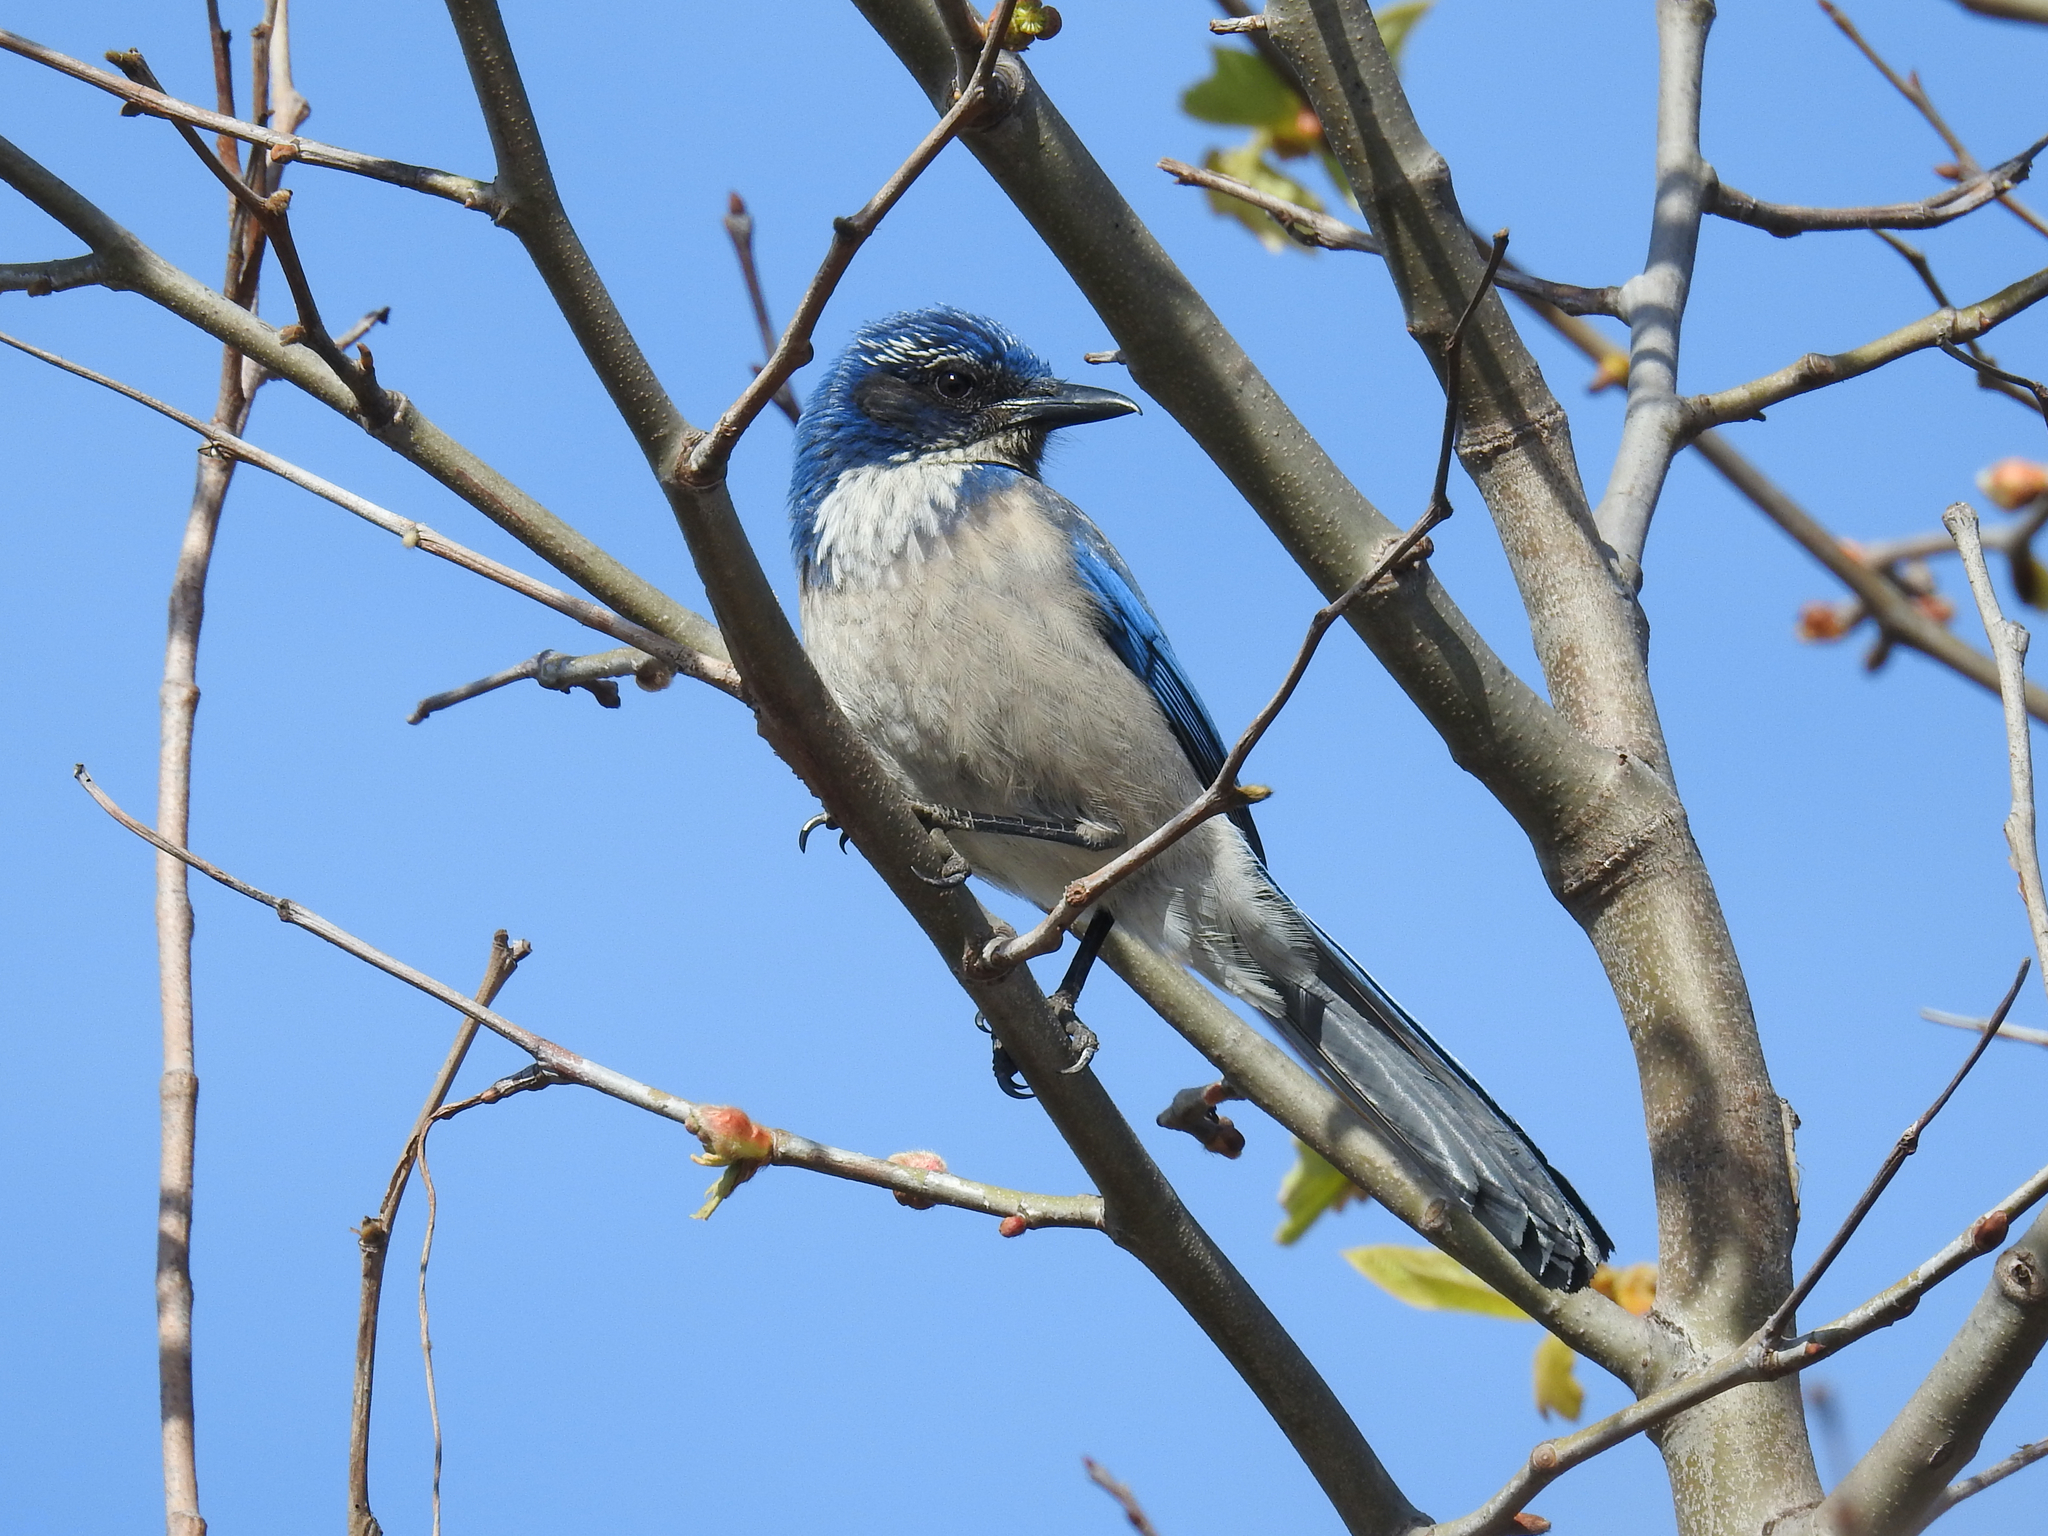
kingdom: Animalia
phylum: Chordata
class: Aves
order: Passeriformes
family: Corvidae
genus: Aphelocoma
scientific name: Aphelocoma californica
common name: California scrub-jay
